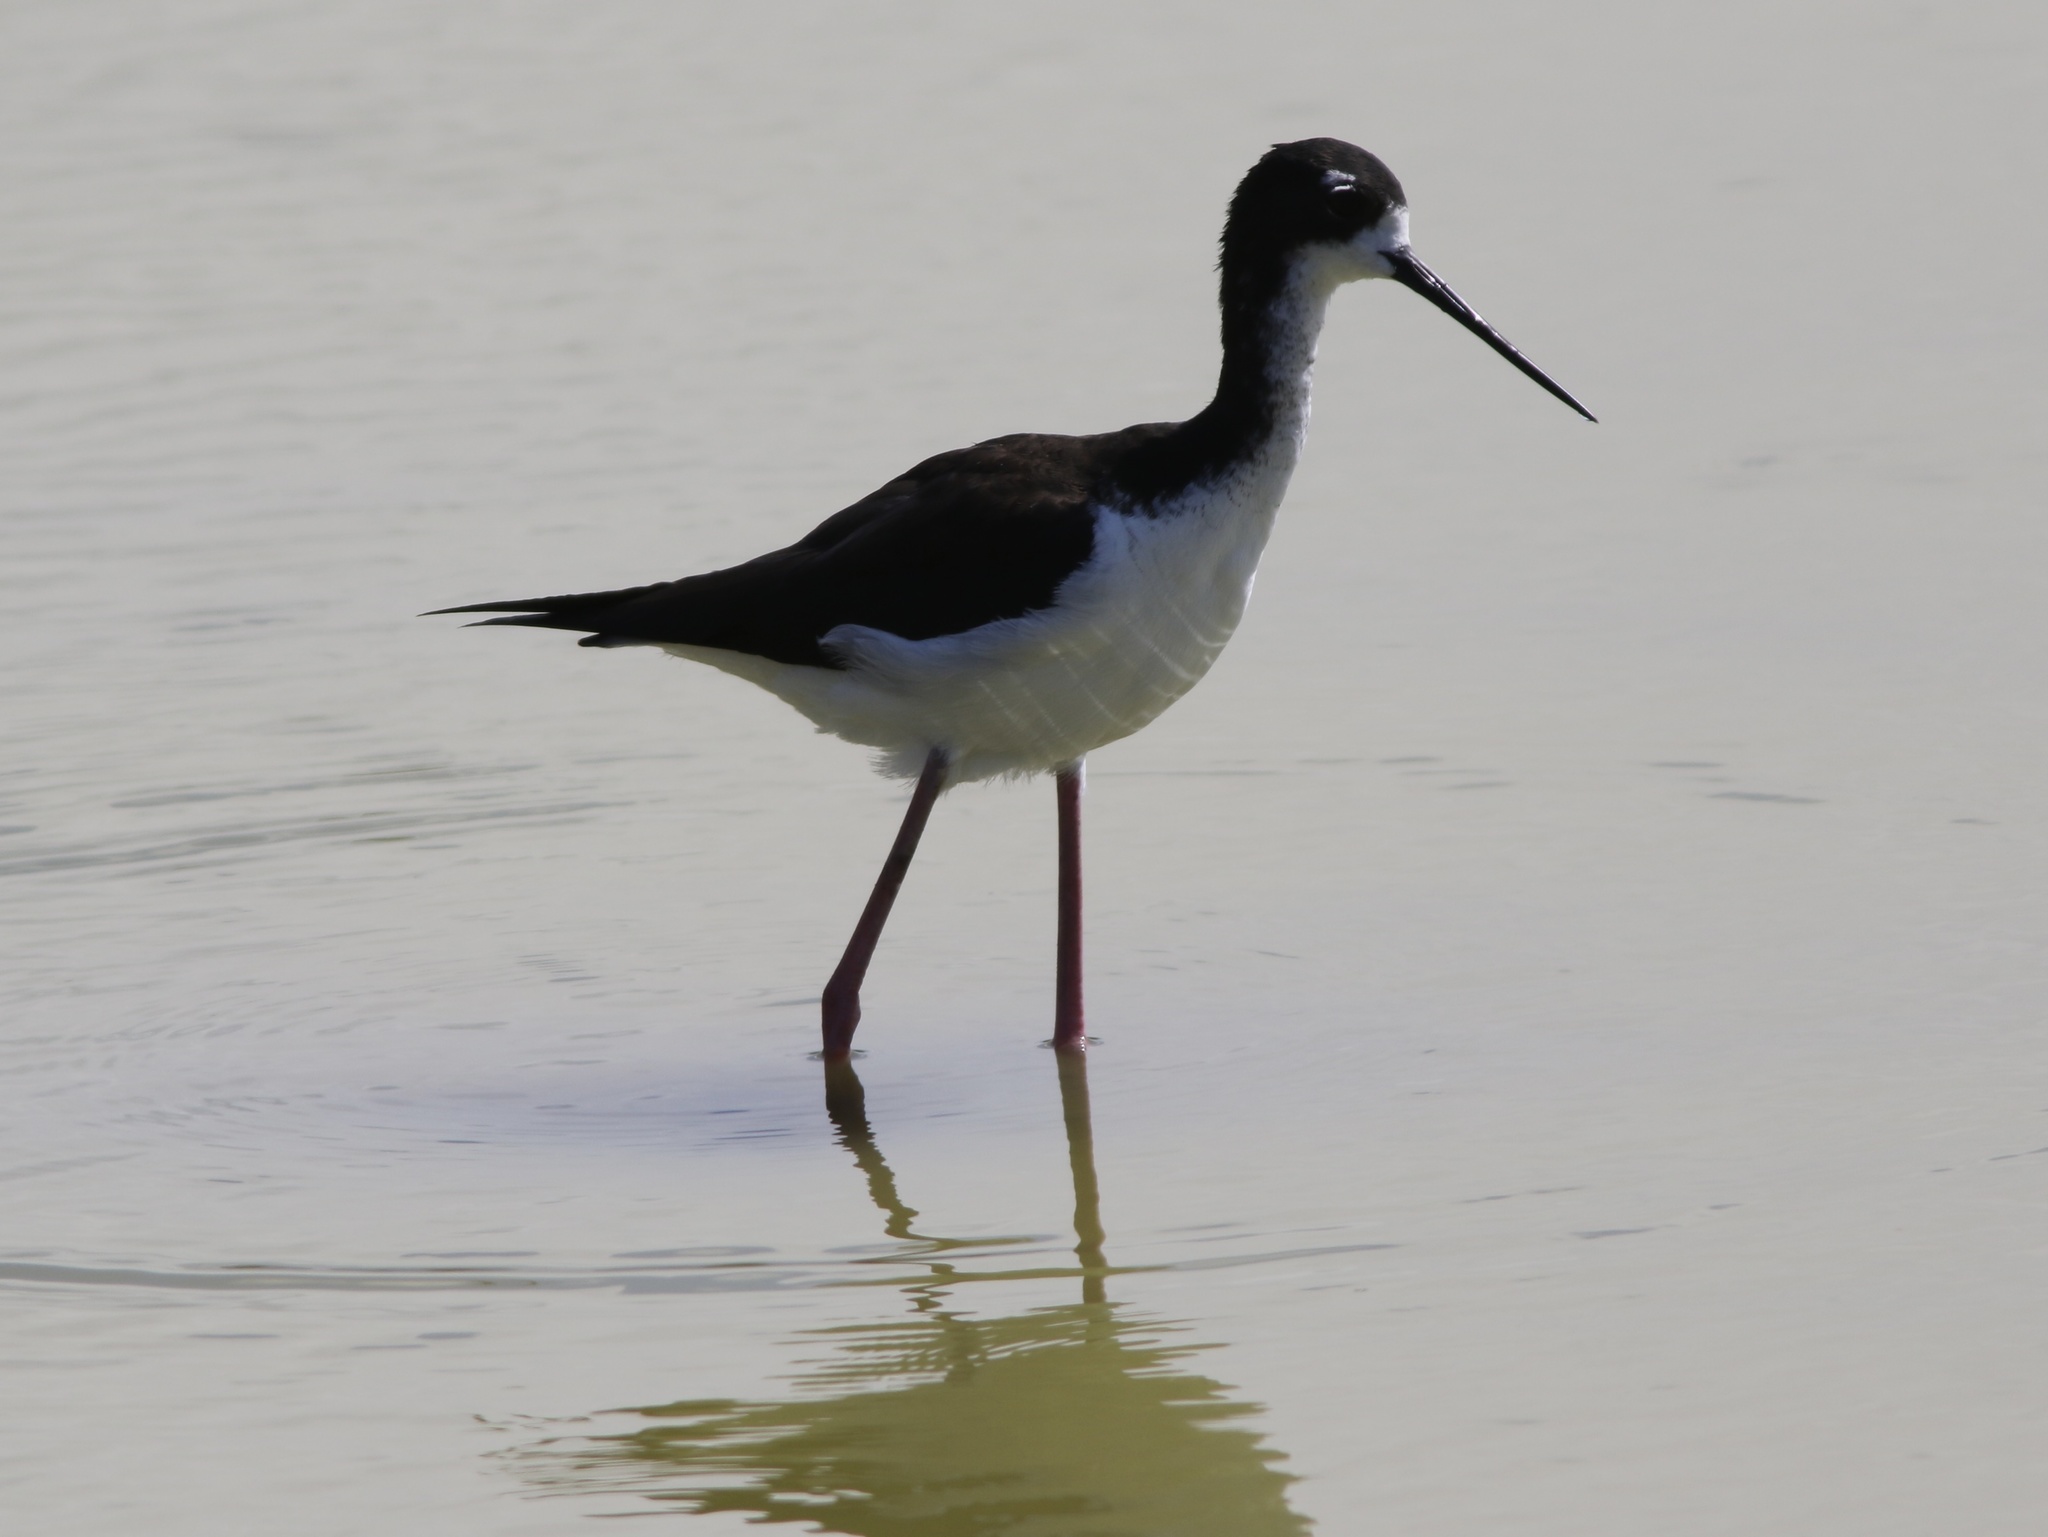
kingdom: Animalia
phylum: Chordata
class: Aves
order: Charadriiformes
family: Recurvirostridae
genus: Himantopus
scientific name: Himantopus mexicanus
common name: Black-necked stilt
